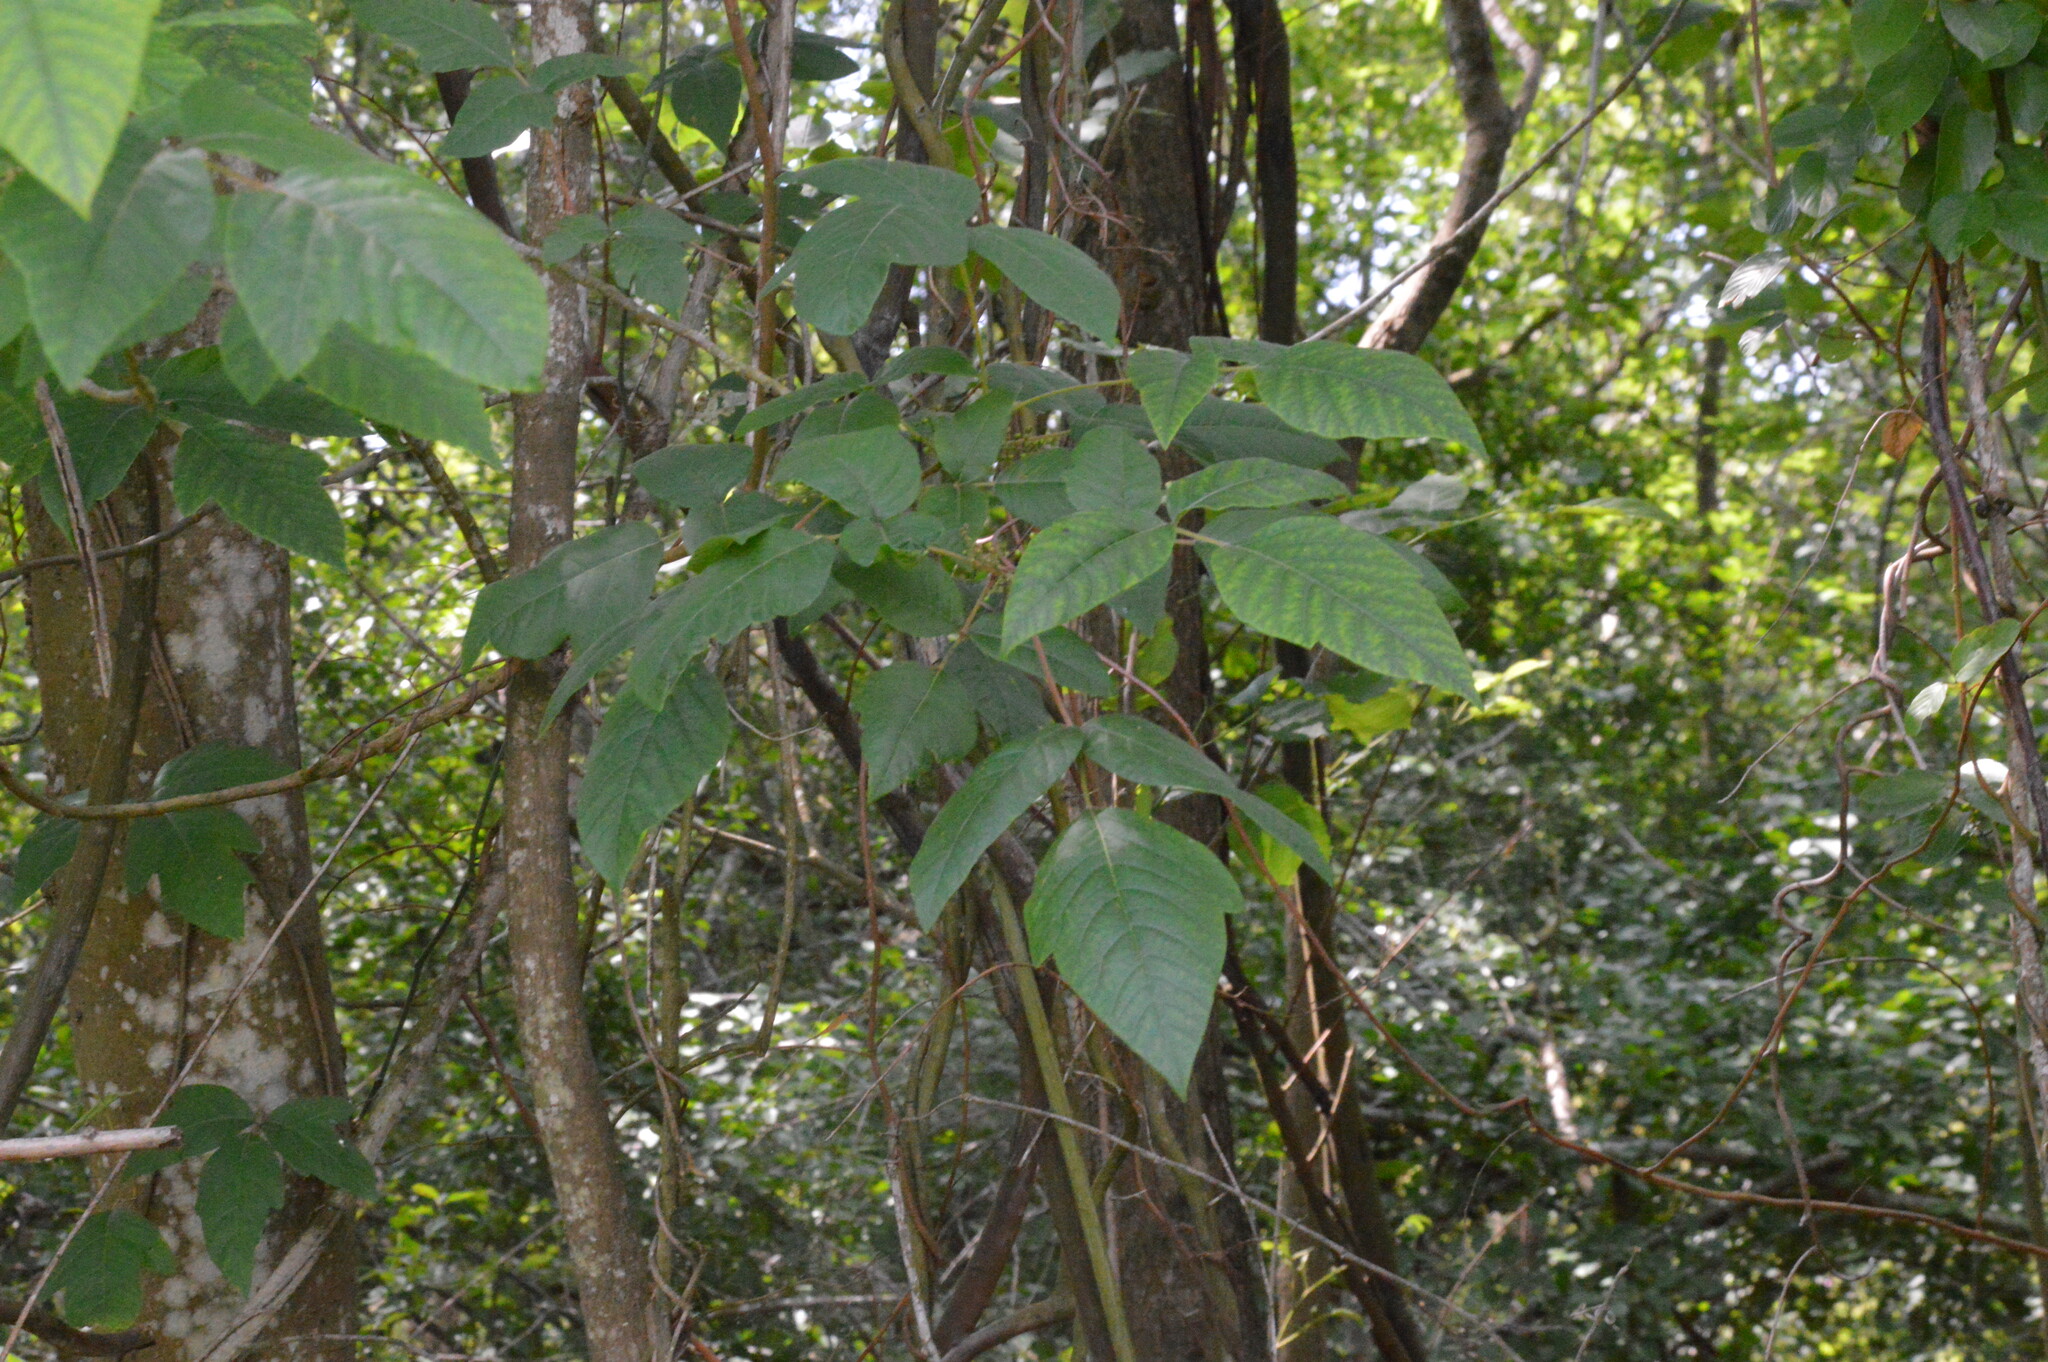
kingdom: Plantae
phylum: Tracheophyta
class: Magnoliopsida
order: Sapindales
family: Anacardiaceae
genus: Toxicodendron
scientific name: Toxicodendron radicans
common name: Poison ivy
